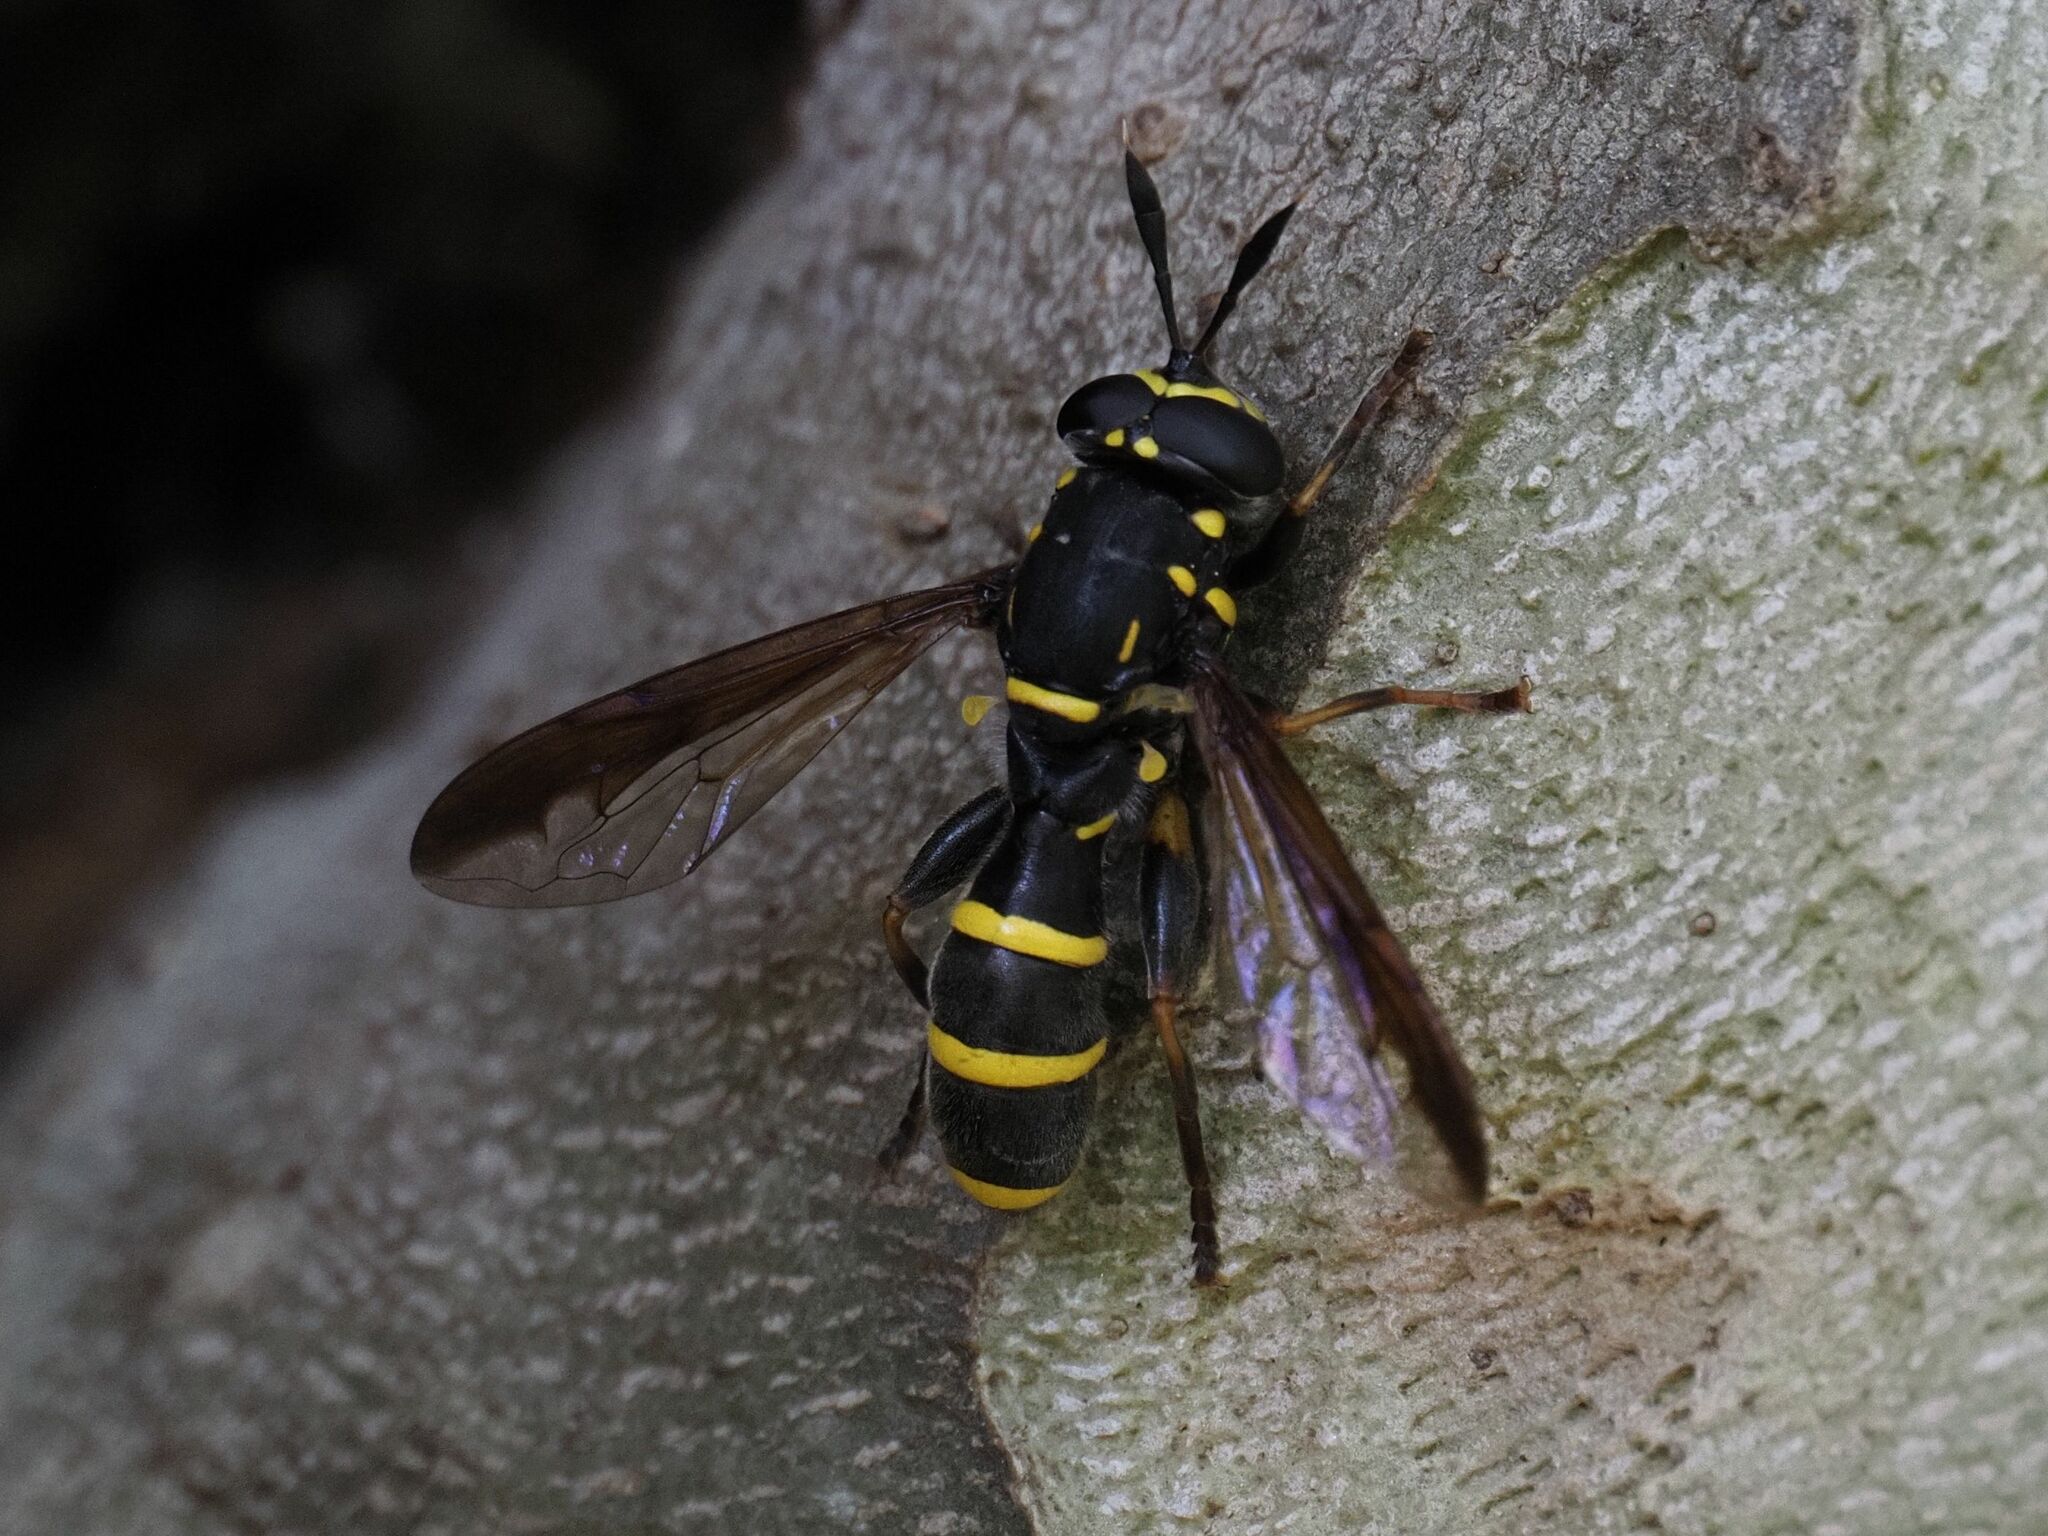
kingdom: Animalia
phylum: Arthropoda
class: Insecta
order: Diptera
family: Syrphidae
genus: Sphiximorpha
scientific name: Sphiximorpha subsessilis
